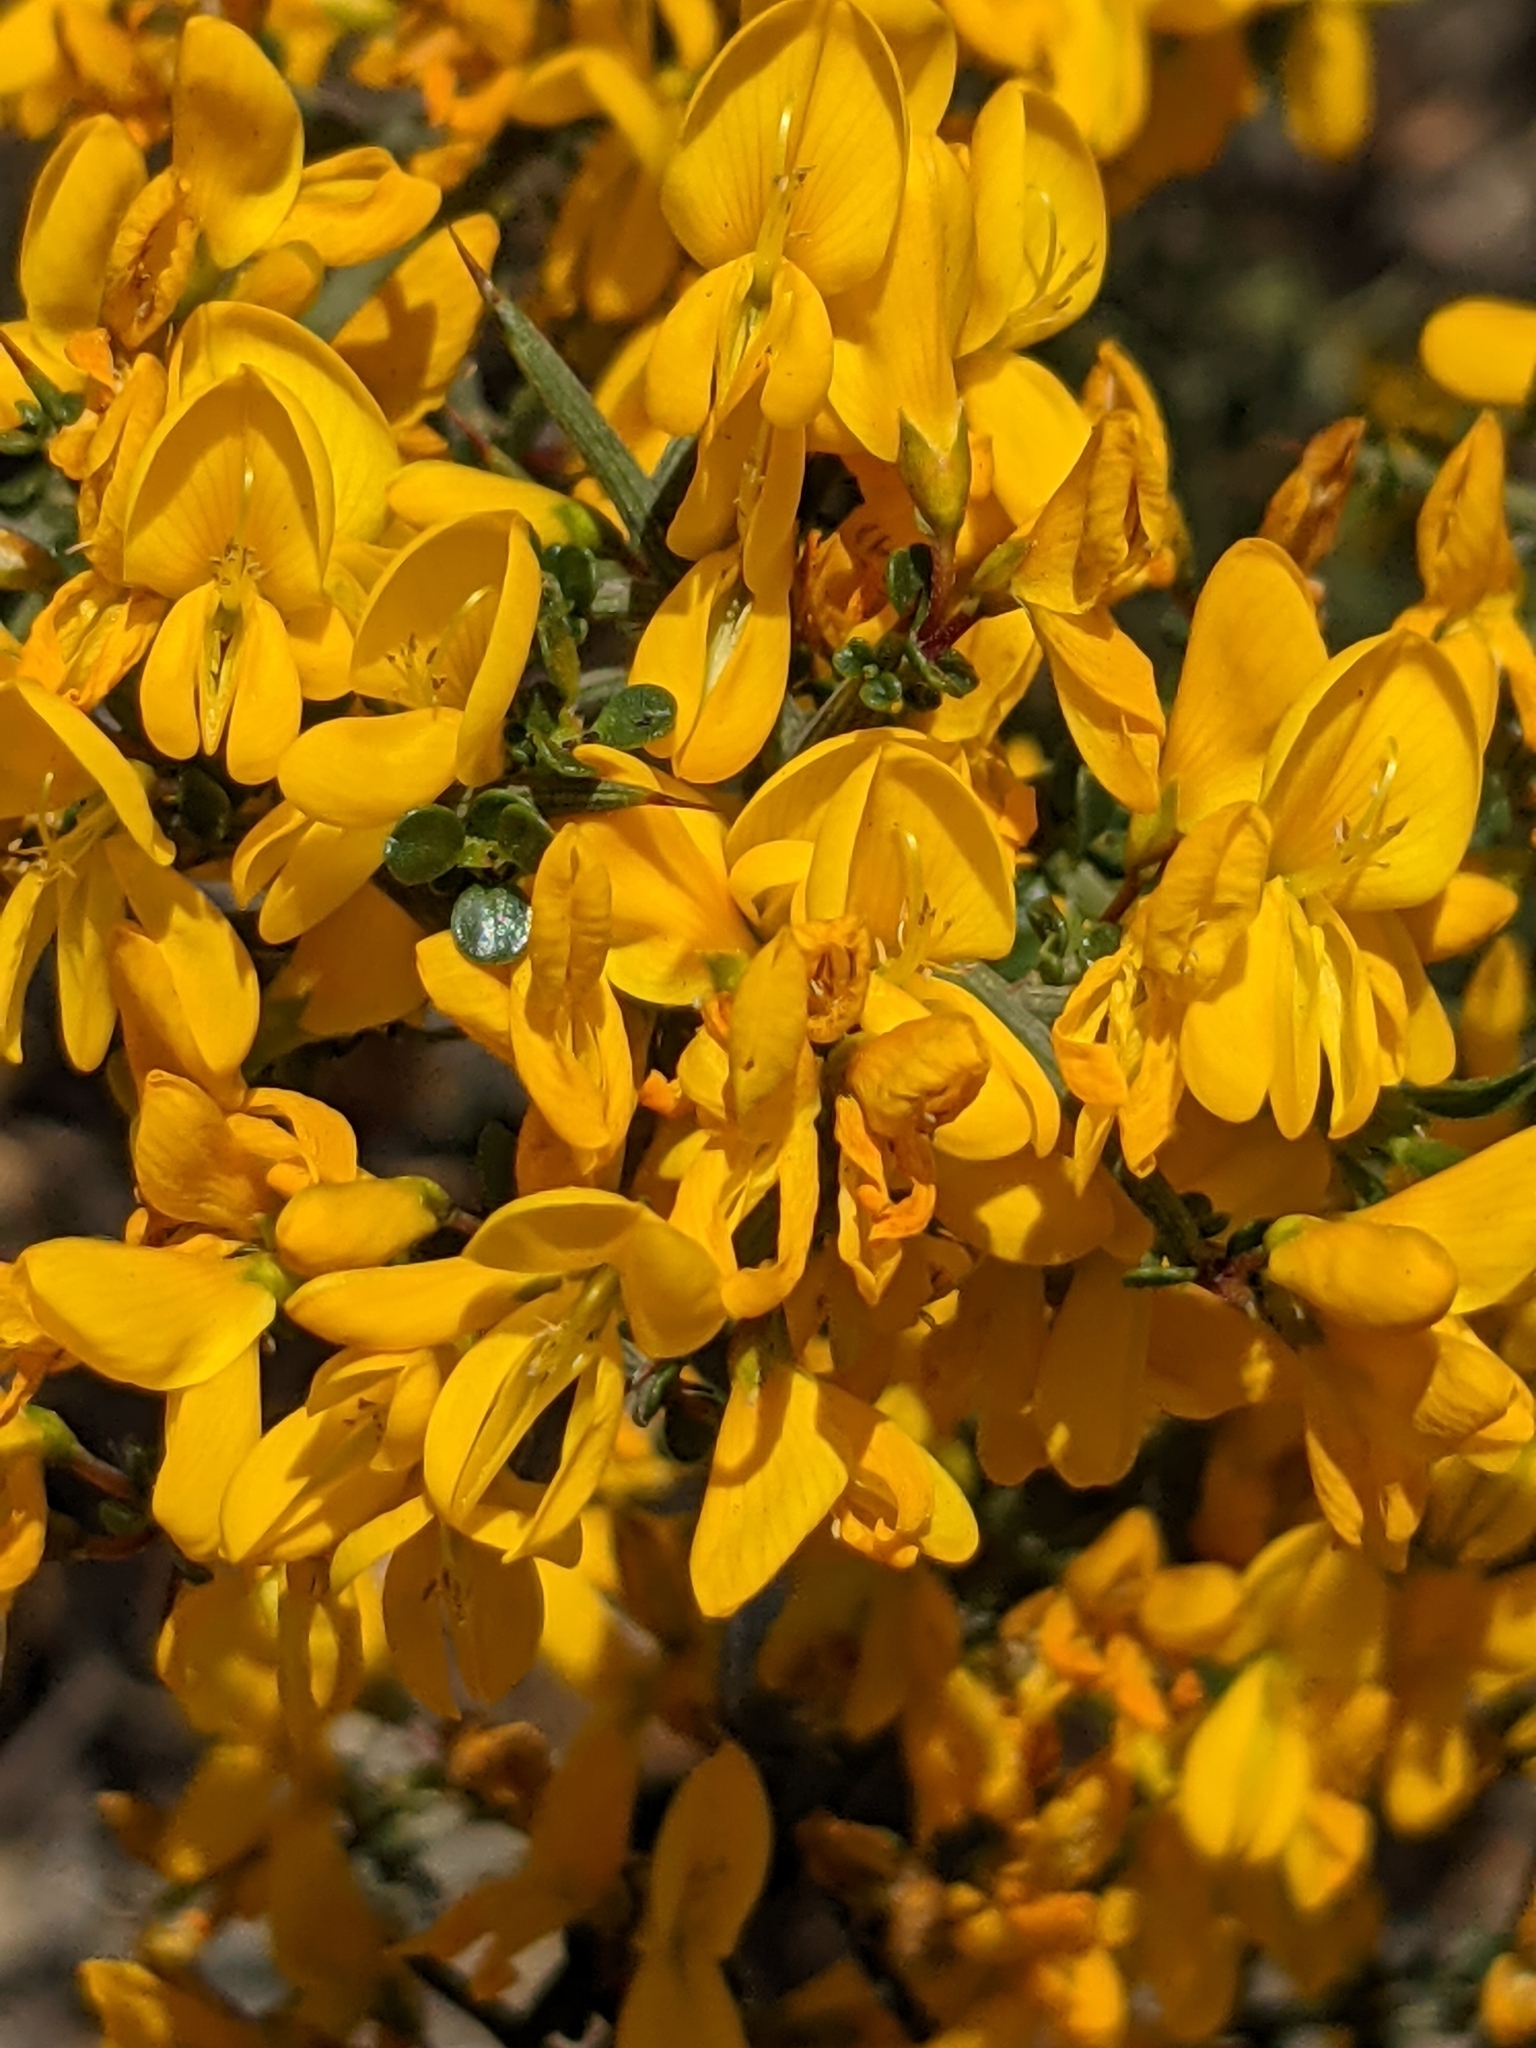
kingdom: Plantae
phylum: Tracheophyta
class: Magnoliopsida
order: Fabales
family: Fabaceae
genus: Genista
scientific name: Genista scorpius
